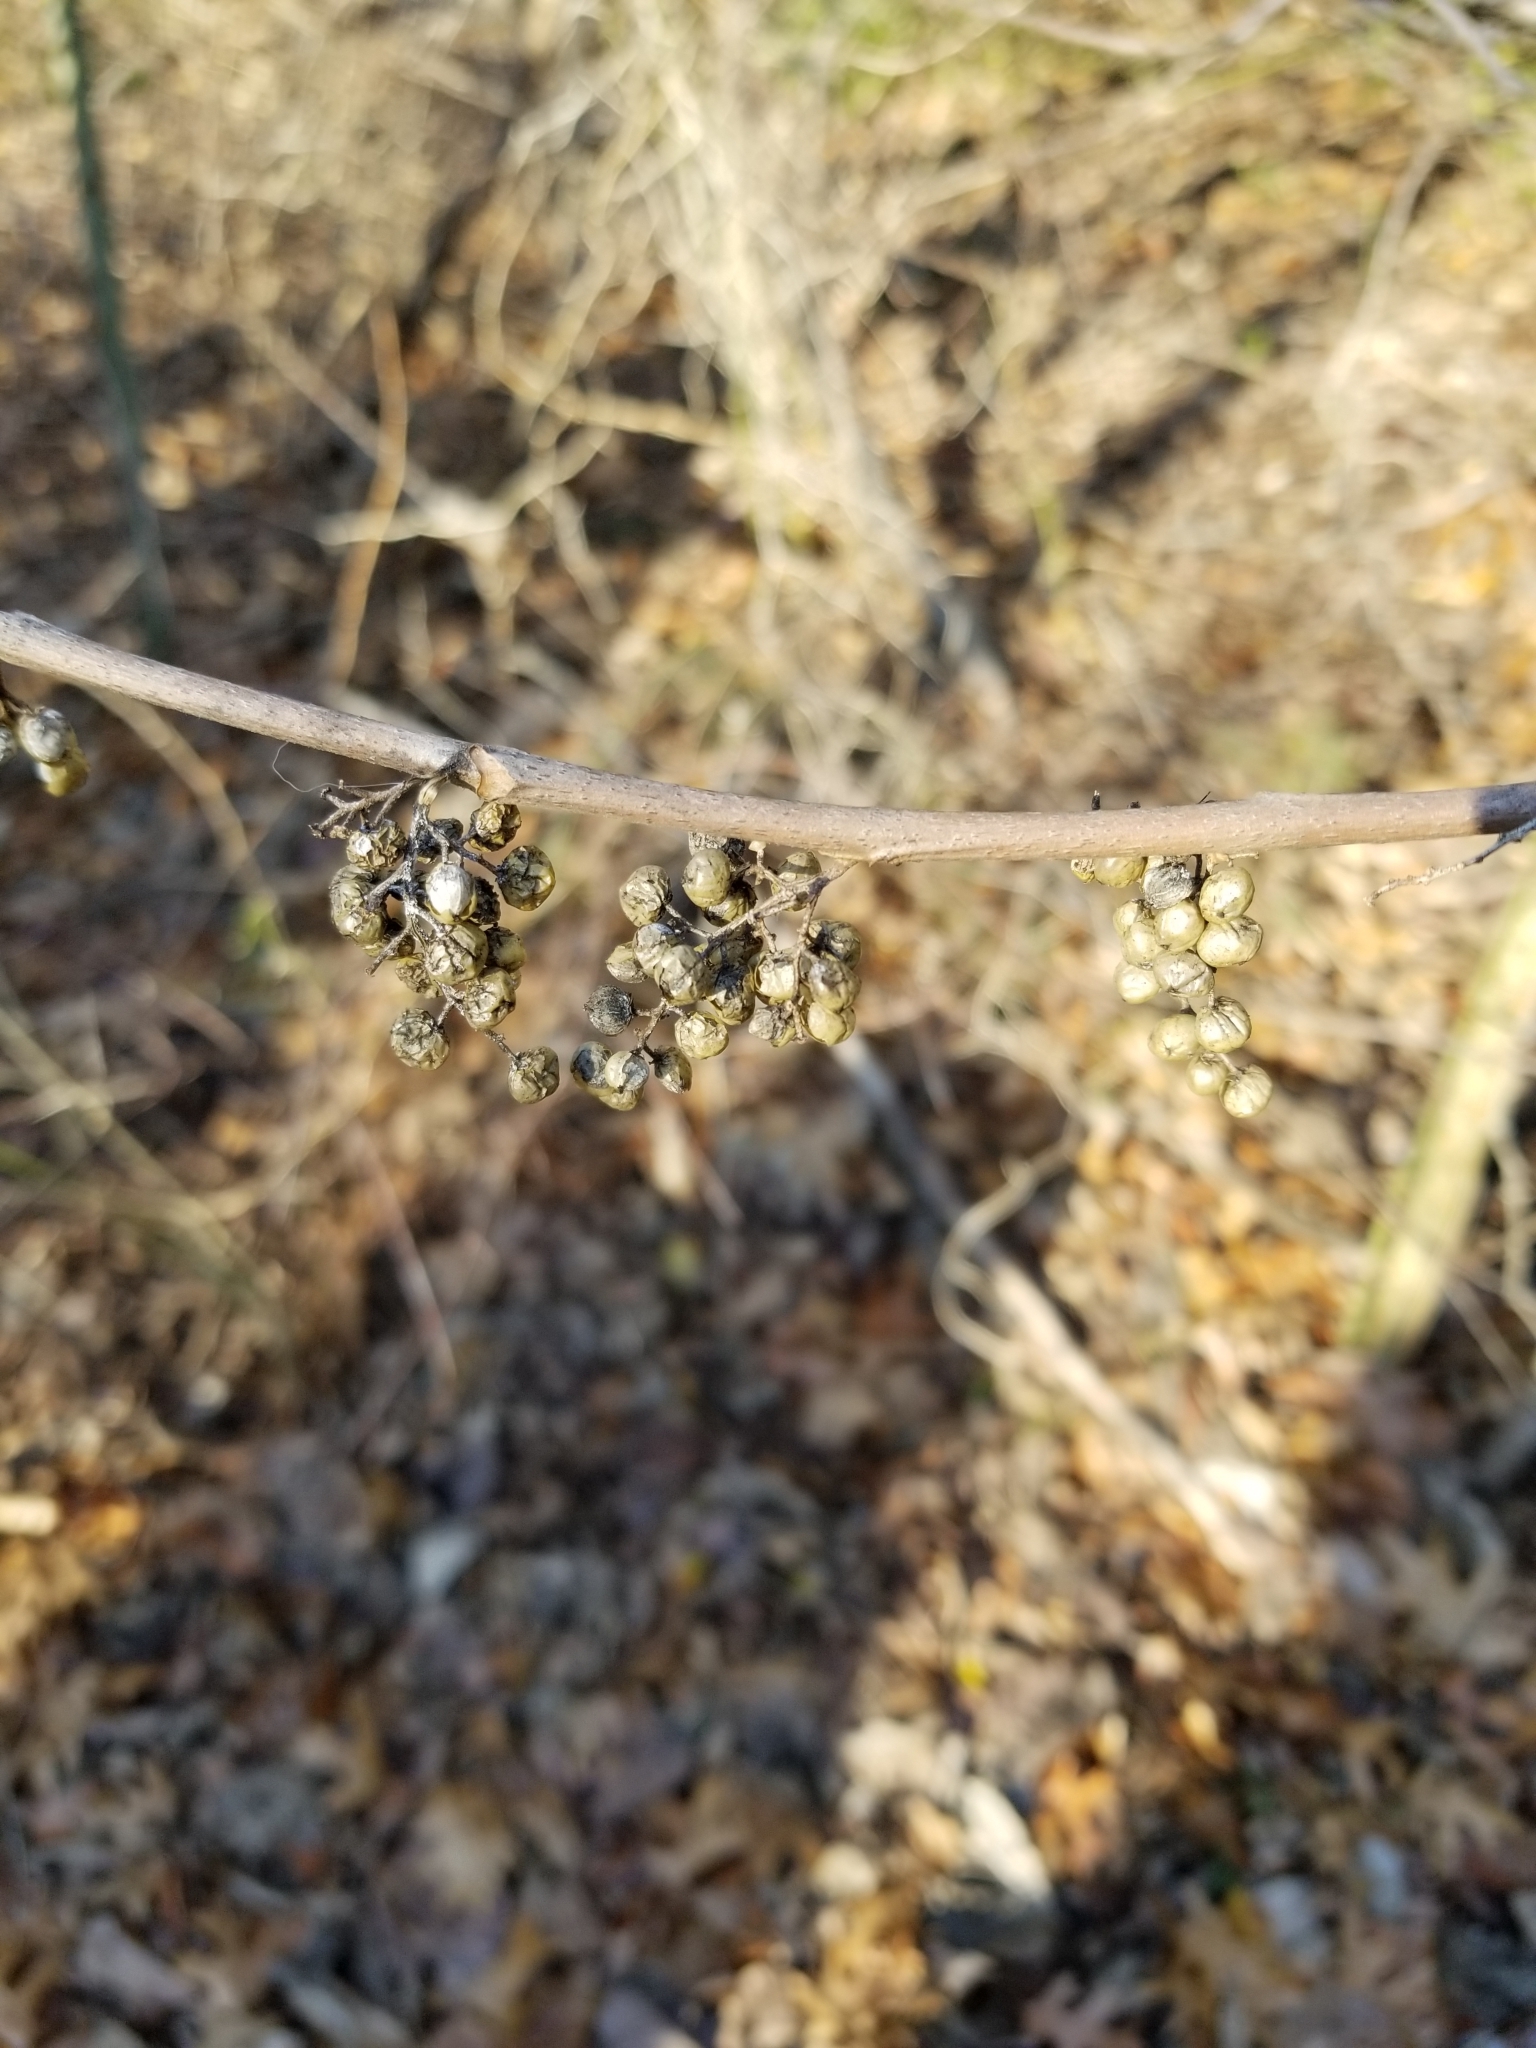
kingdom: Plantae
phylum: Tracheophyta
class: Magnoliopsida
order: Sapindales
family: Anacardiaceae
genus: Toxicodendron
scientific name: Toxicodendron radicans
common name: Poison ivy
